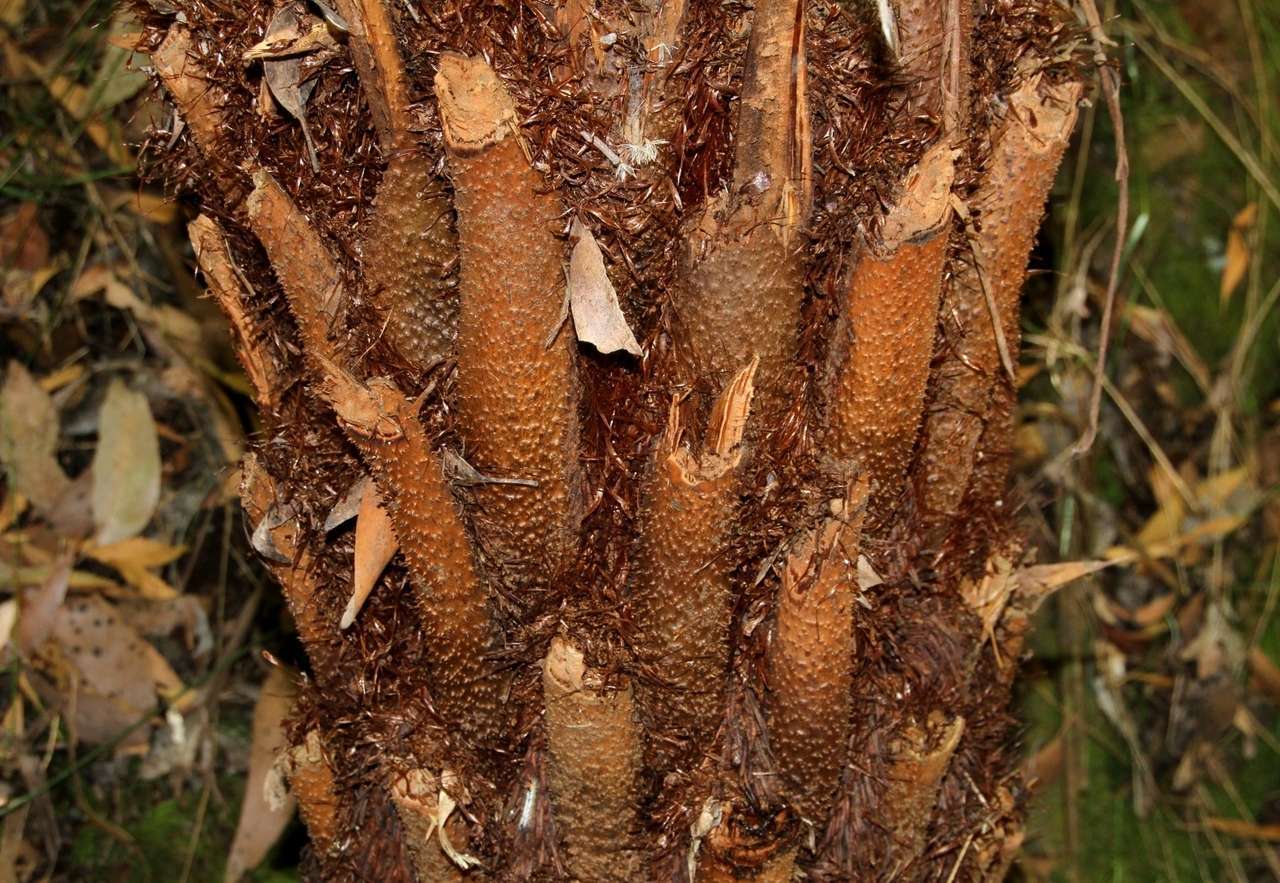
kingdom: Plantae
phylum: Tracheophyta
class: Polypodiopsida
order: Cyatheales
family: Cyatheaceae
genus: Alsophila
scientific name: Alsophila australis
